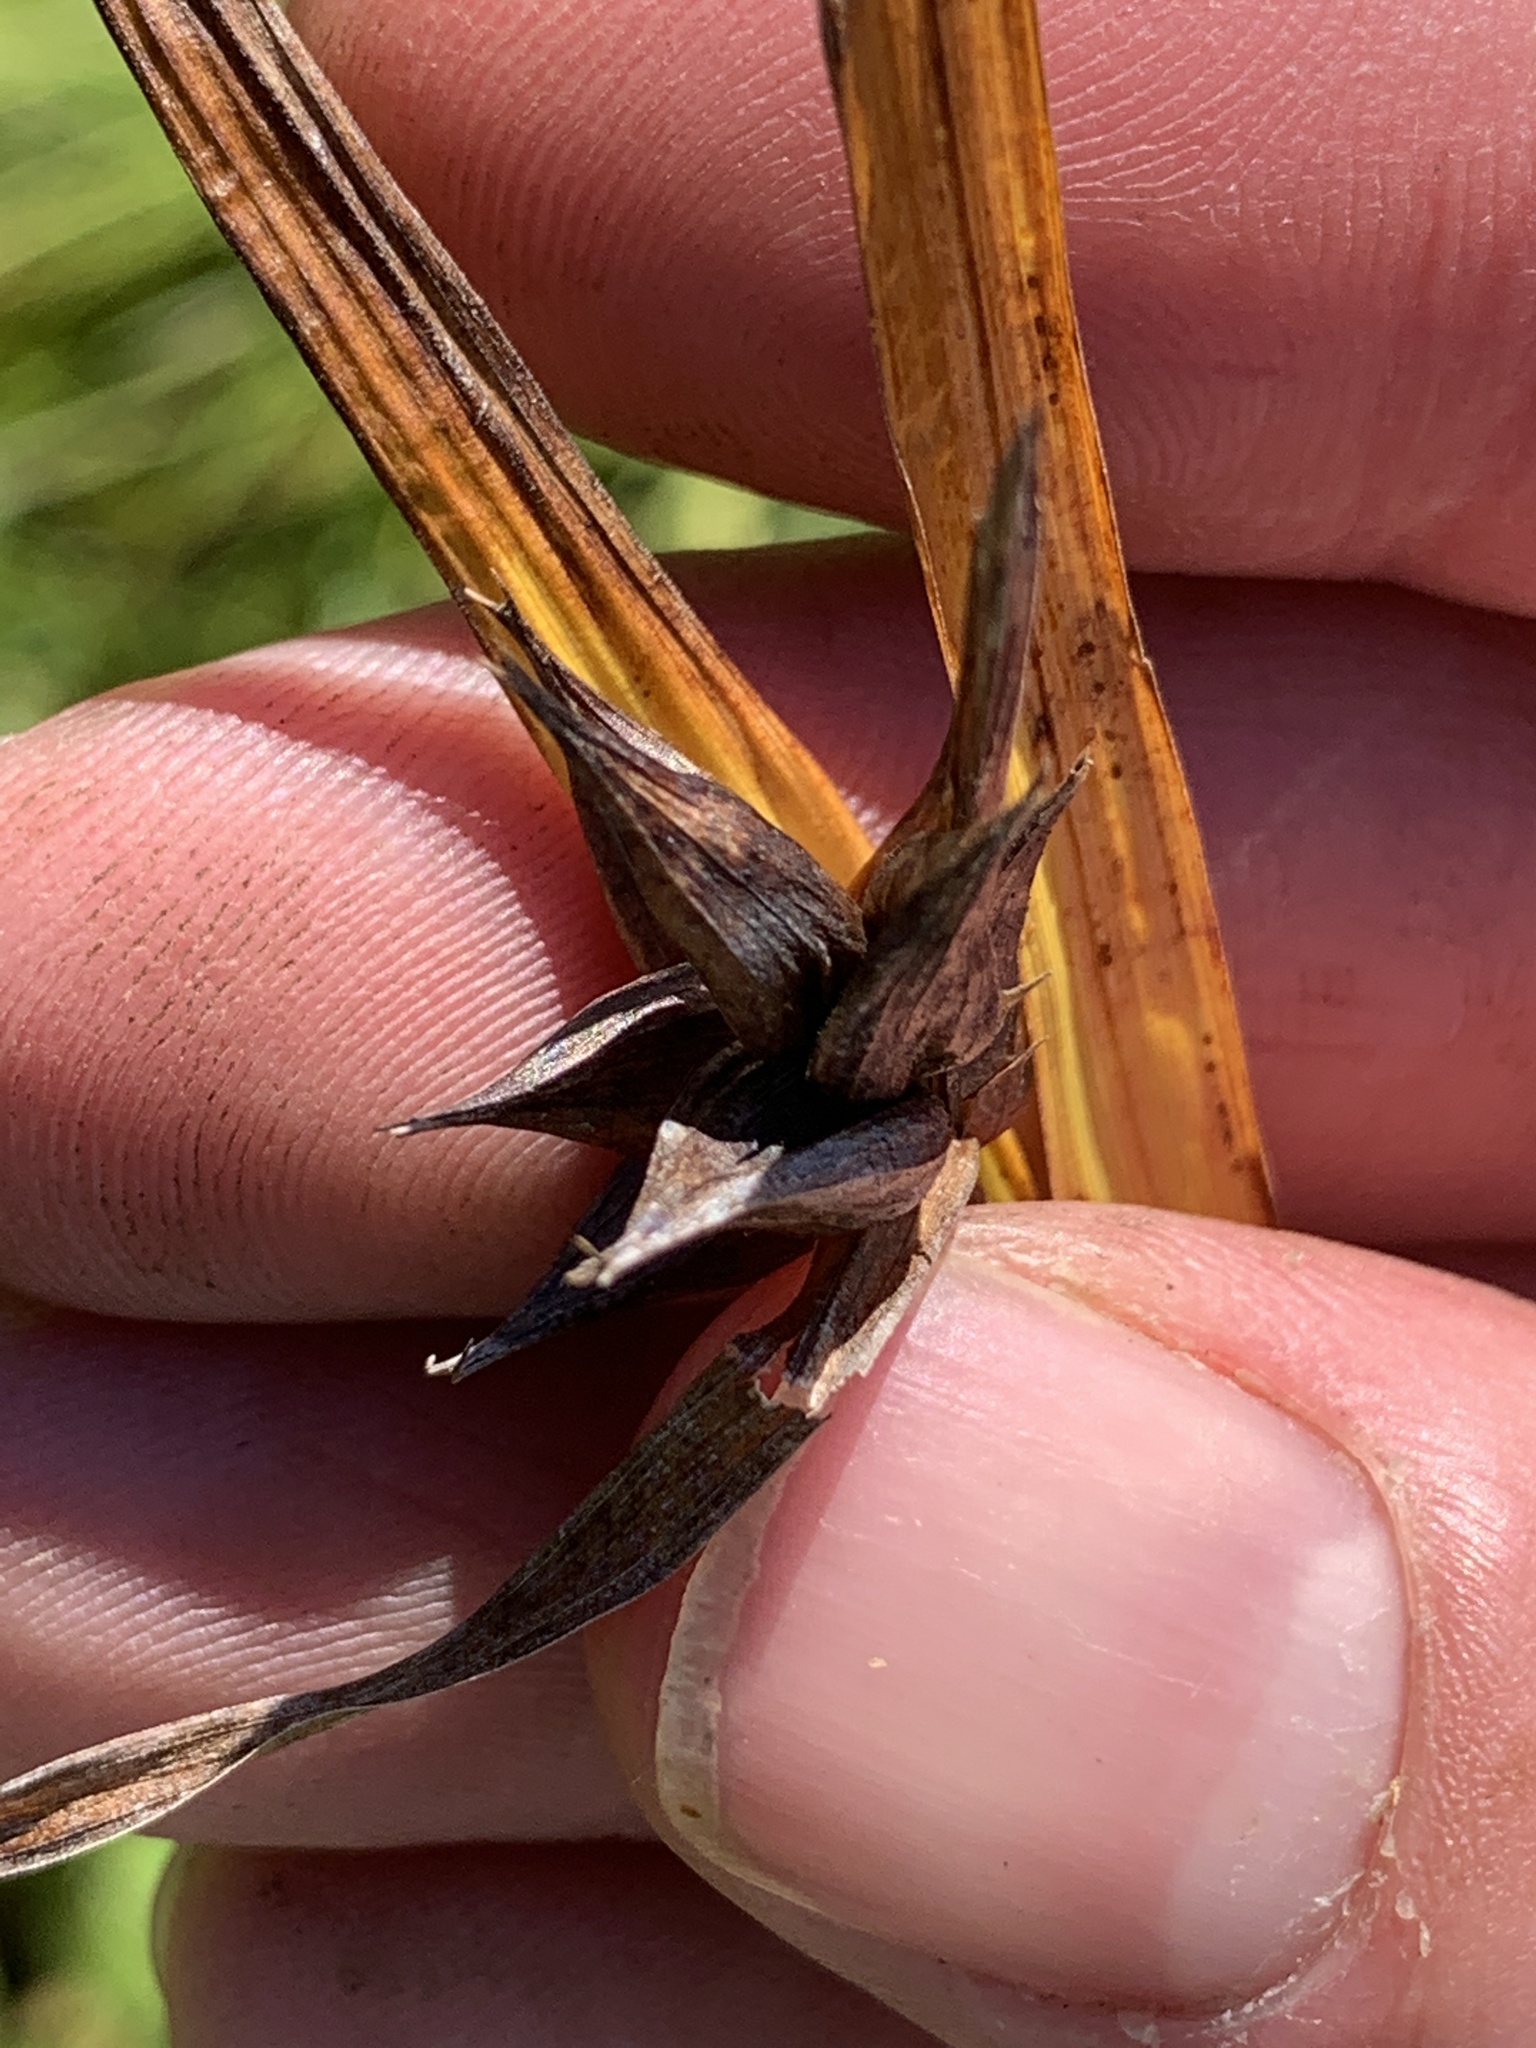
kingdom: Plantae
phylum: Tracheophyta
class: Liliopsida
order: Poales
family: Cyperaceae
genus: Carex
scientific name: Carex intumescens
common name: Greater bladder sedge
